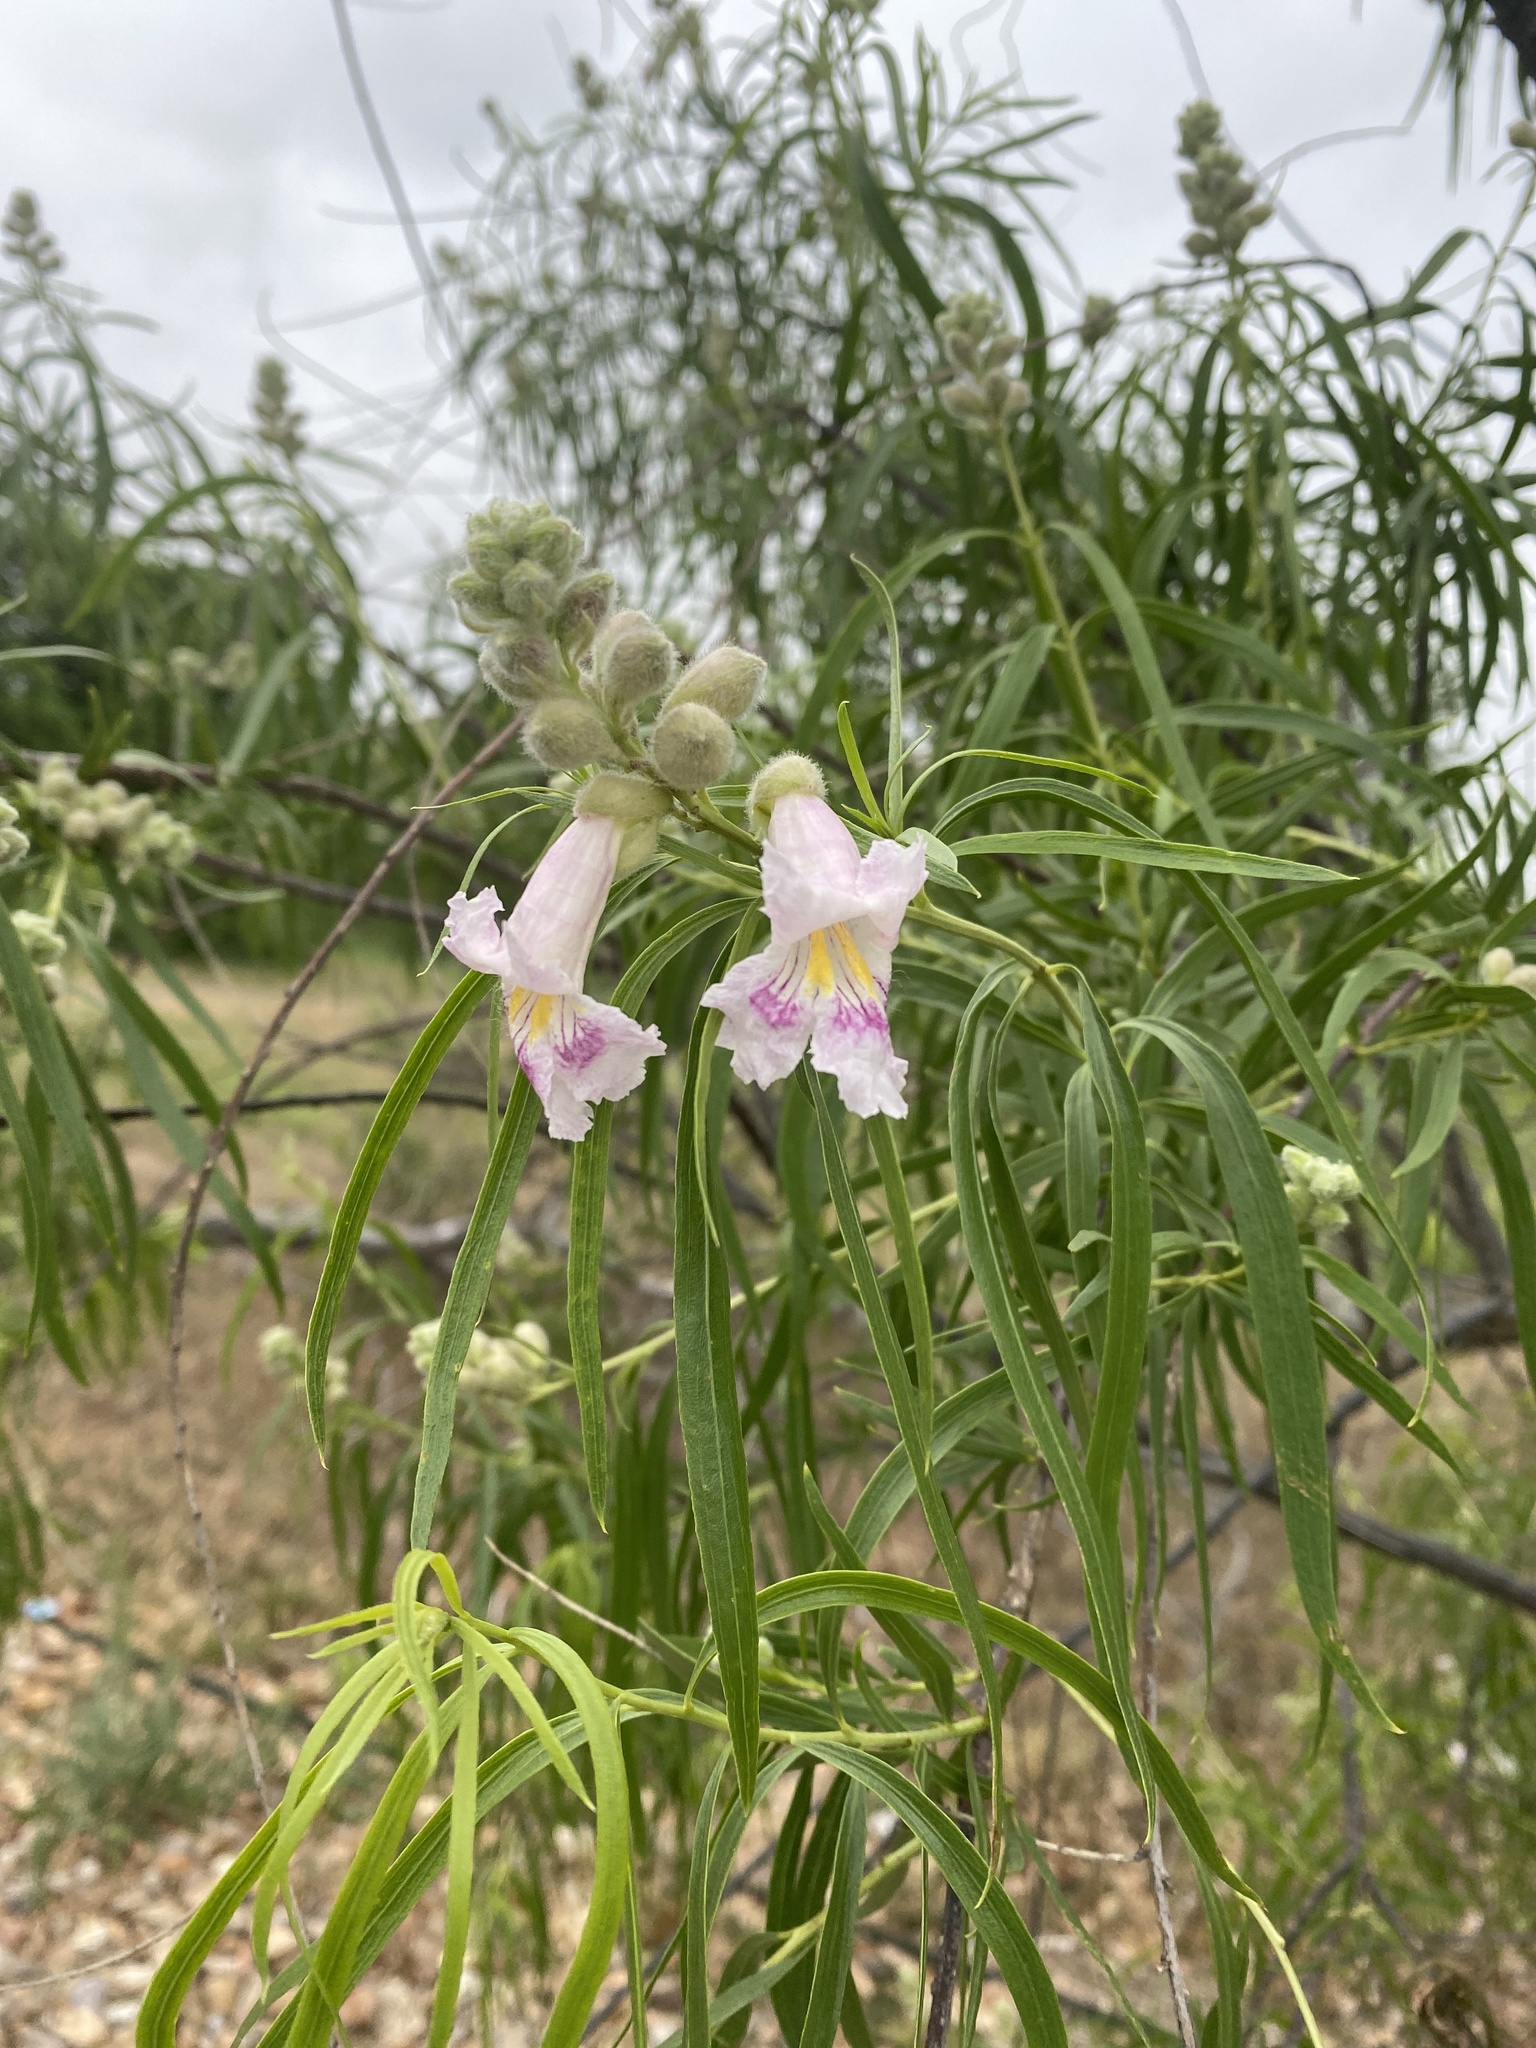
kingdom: Plantae
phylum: Tracheophyta
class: Magnoliopsida
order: Lamiales
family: Bignoniaceae
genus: Chilopsis
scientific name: Chilopsis linearis
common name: Desert-willow
